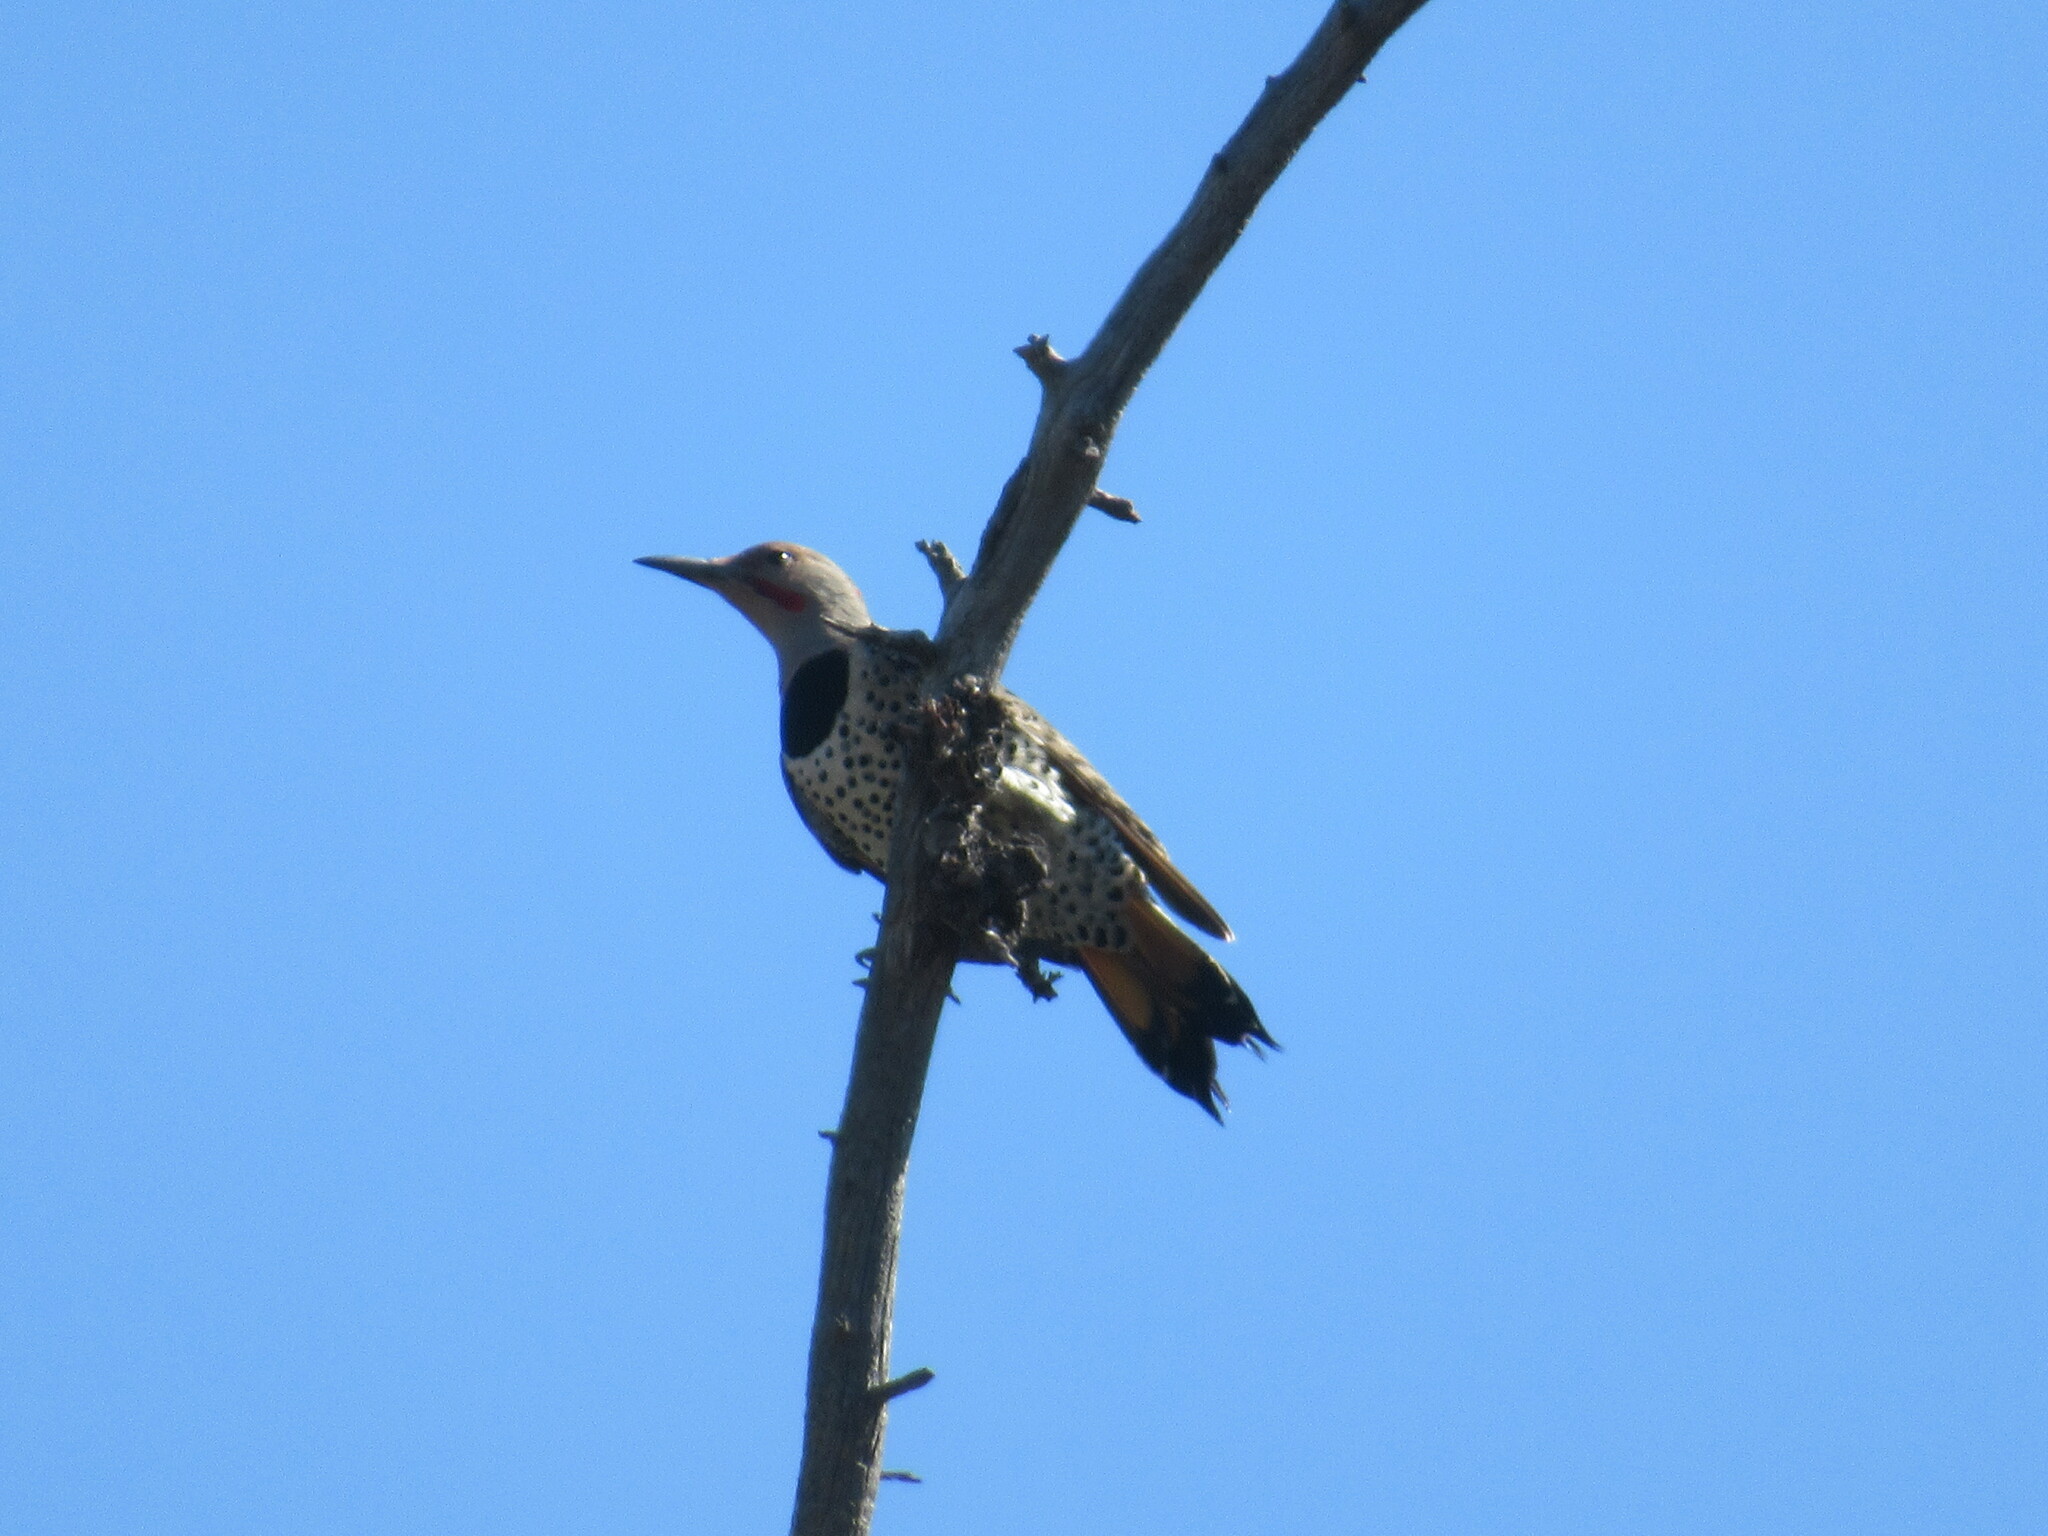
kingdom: Animalia
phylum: Chordata
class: Aves
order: Piciformes
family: Picidae
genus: Colaptes
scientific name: Colaptes auratus
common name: Northern flicker
